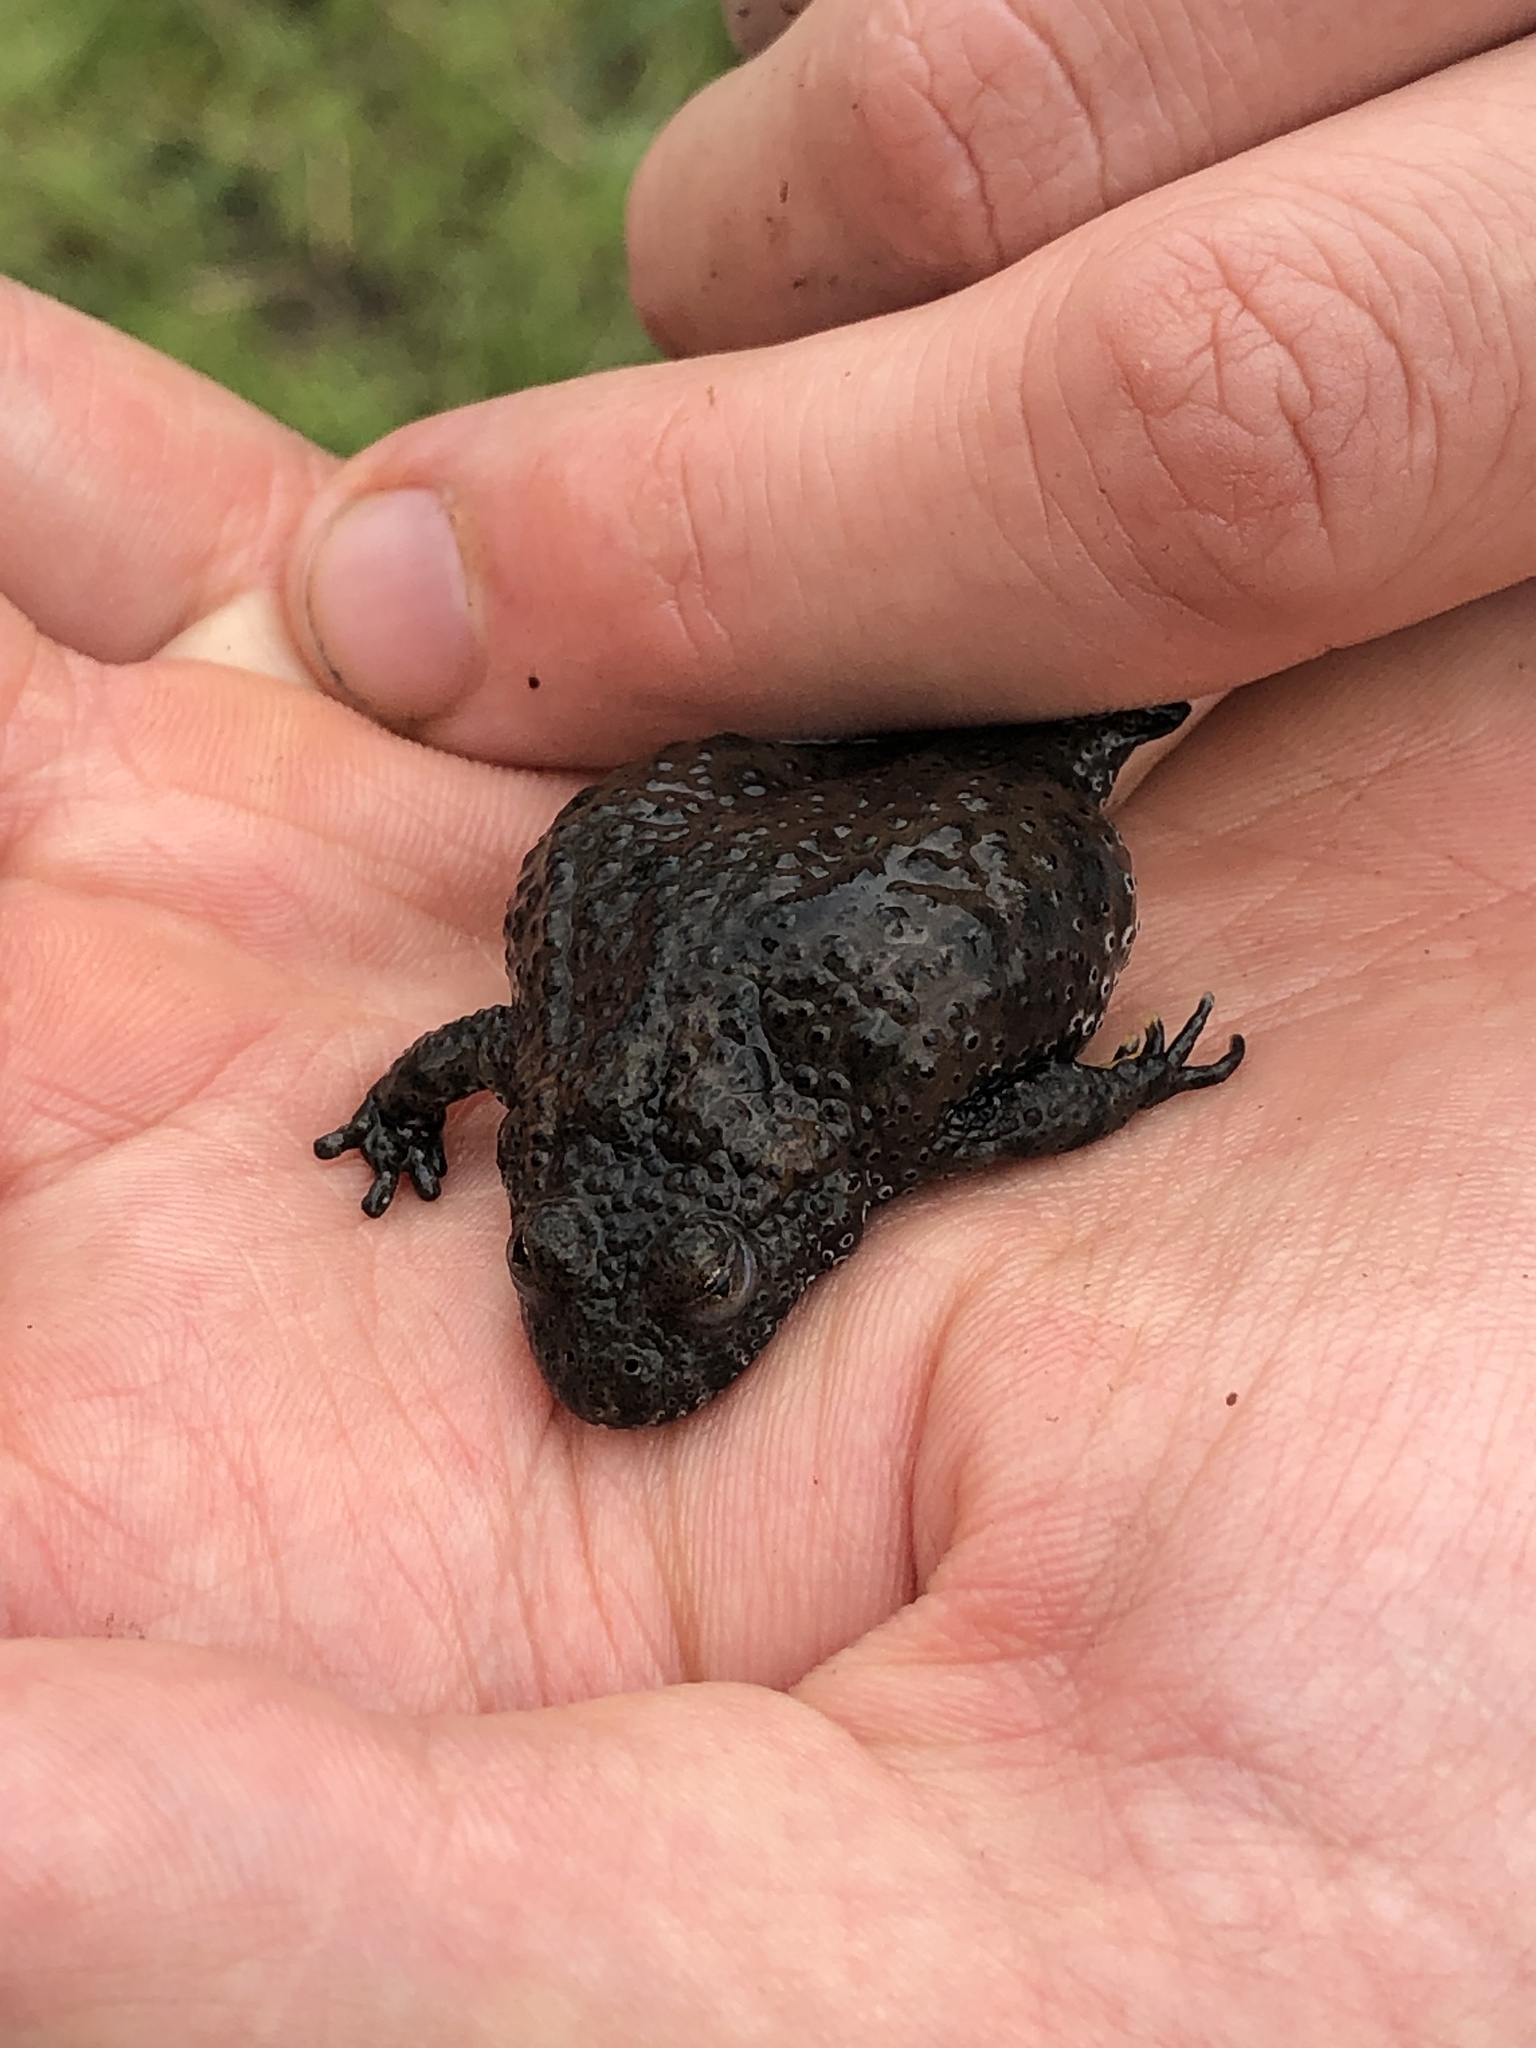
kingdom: Animalia
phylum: Chordata
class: Amphibia
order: Anura
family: Bombinatoridae
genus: Bombina
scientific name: Bombina bombina
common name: Fire-bellied toad
